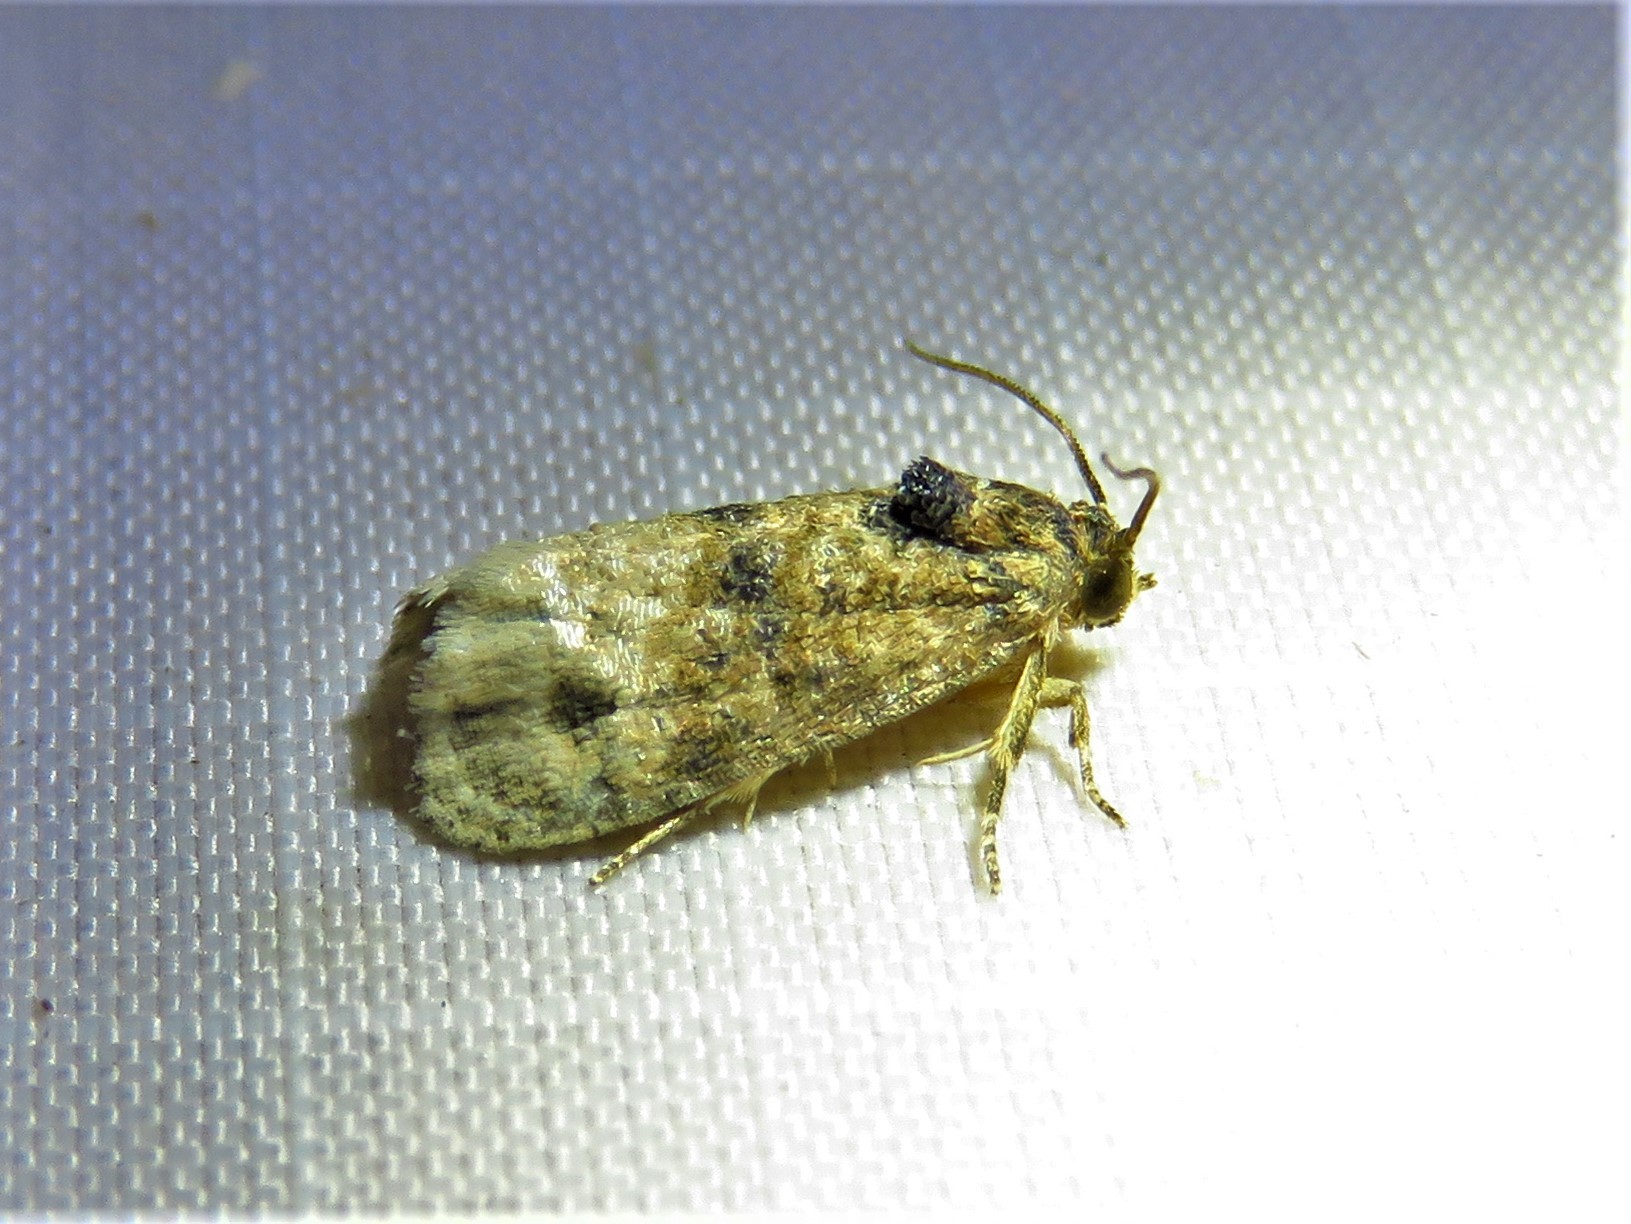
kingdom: Animalia
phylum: Arthropoda
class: Insecta
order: Lepidoptera
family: Tortricidae
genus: Ecdytolopha
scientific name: Ecdytolopha mana
